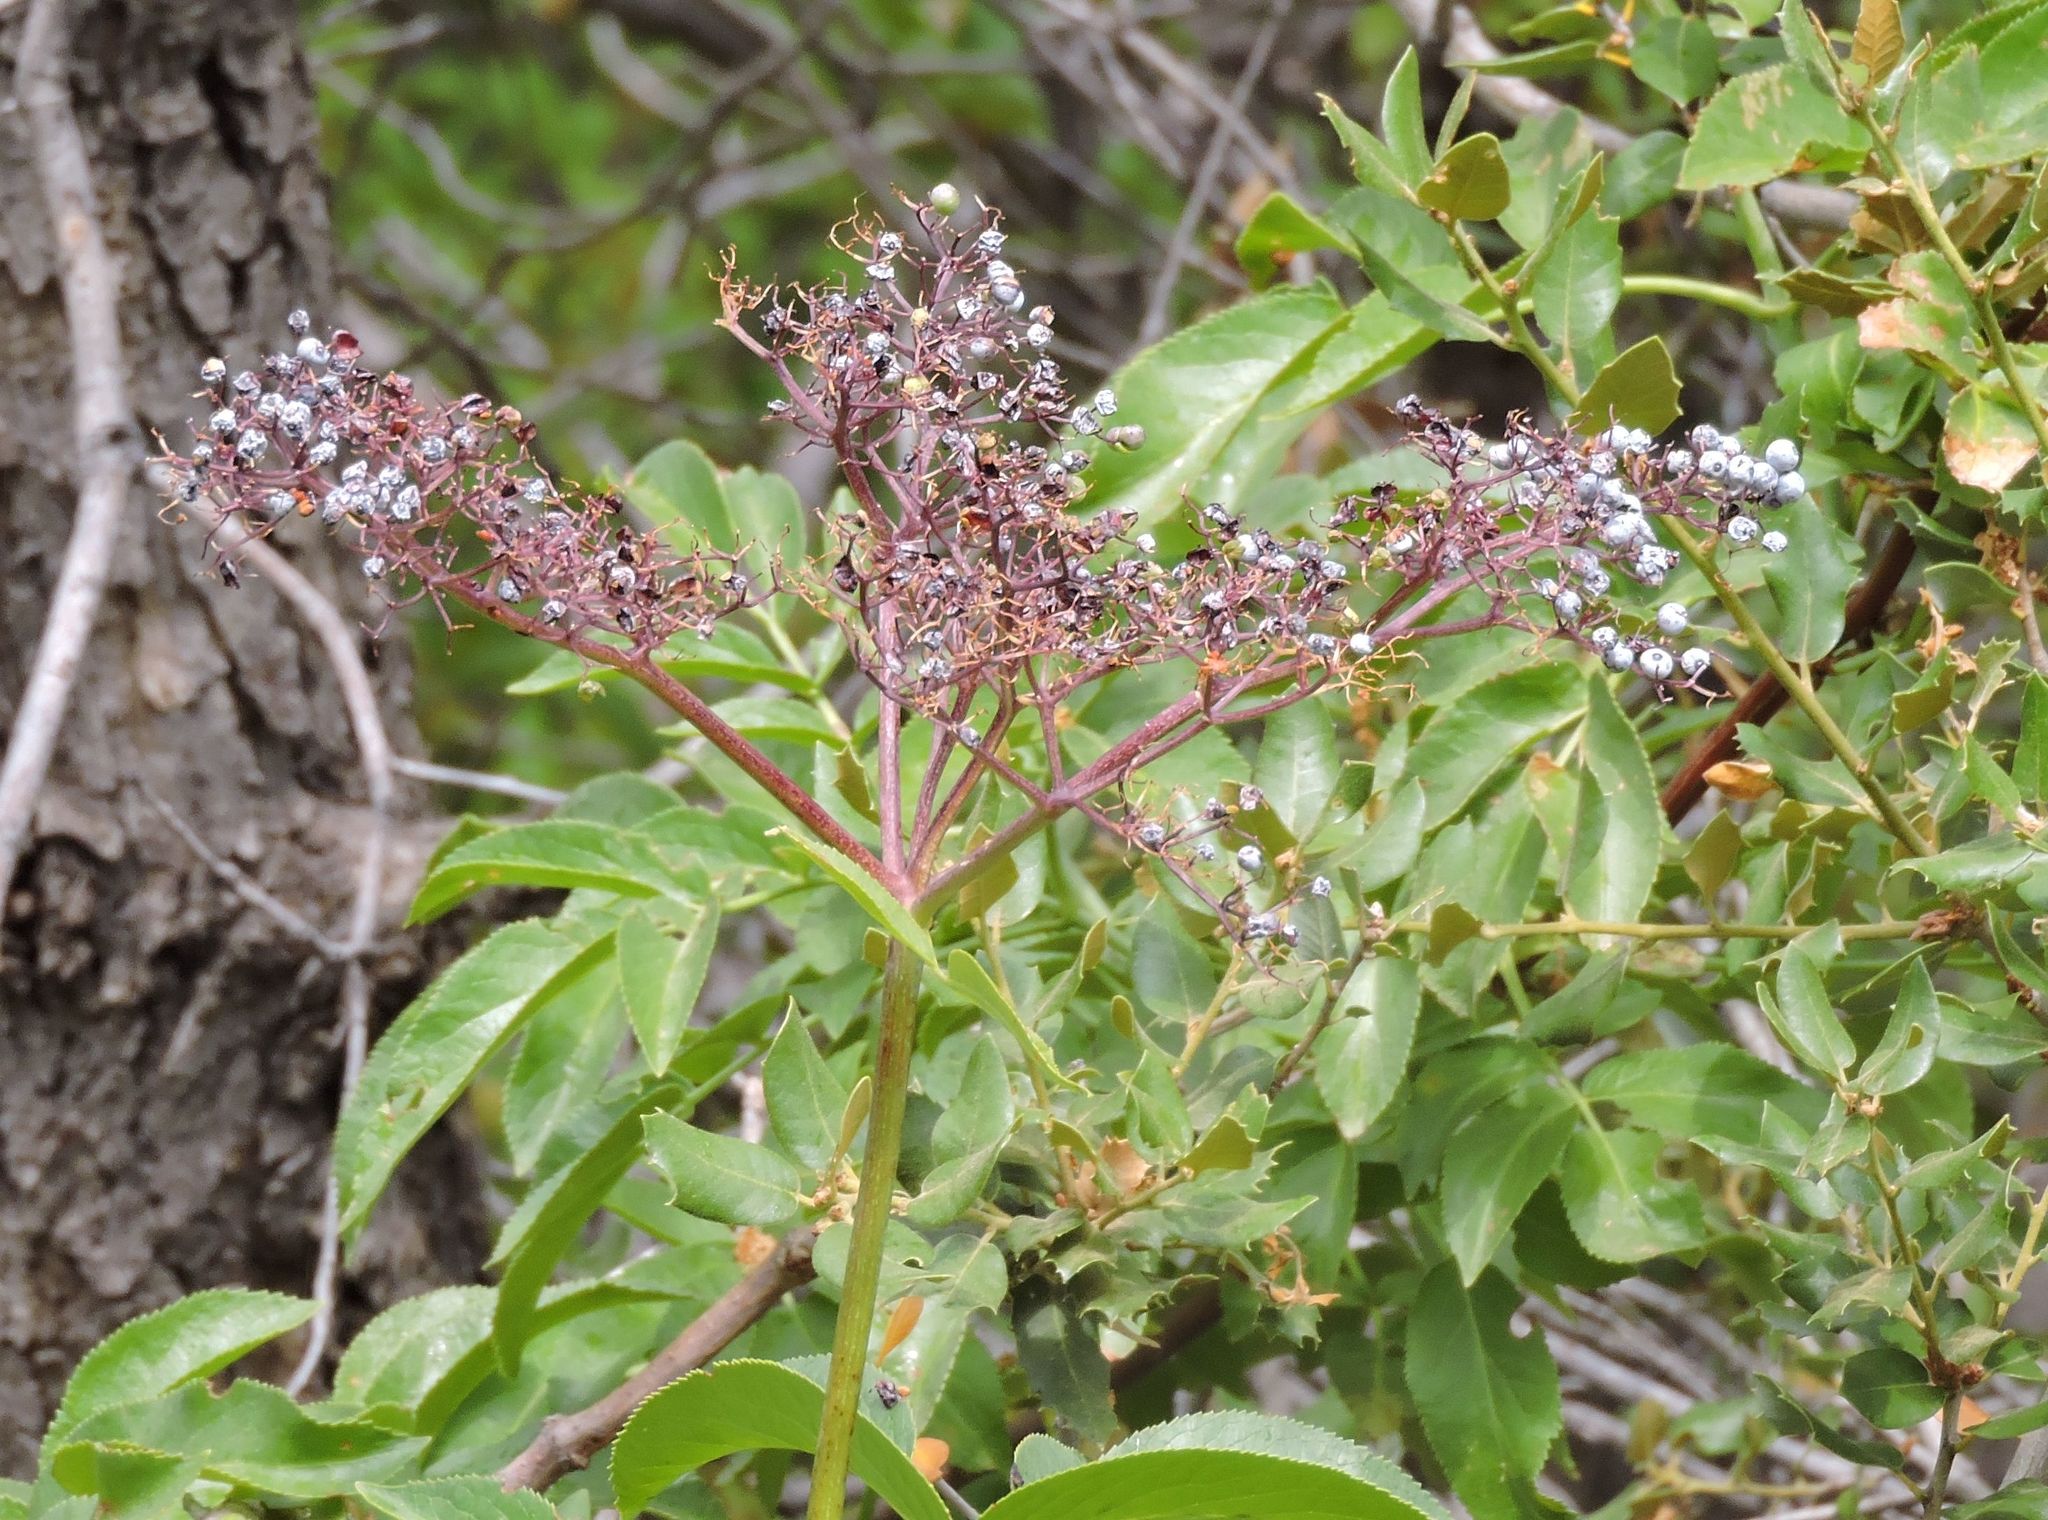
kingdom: Plantae
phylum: Tracheophyta
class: Magnoliopsida
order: Dipsacales
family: Viburnaceae
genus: Sambucus
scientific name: Sambucus cerulea
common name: Blue elder
